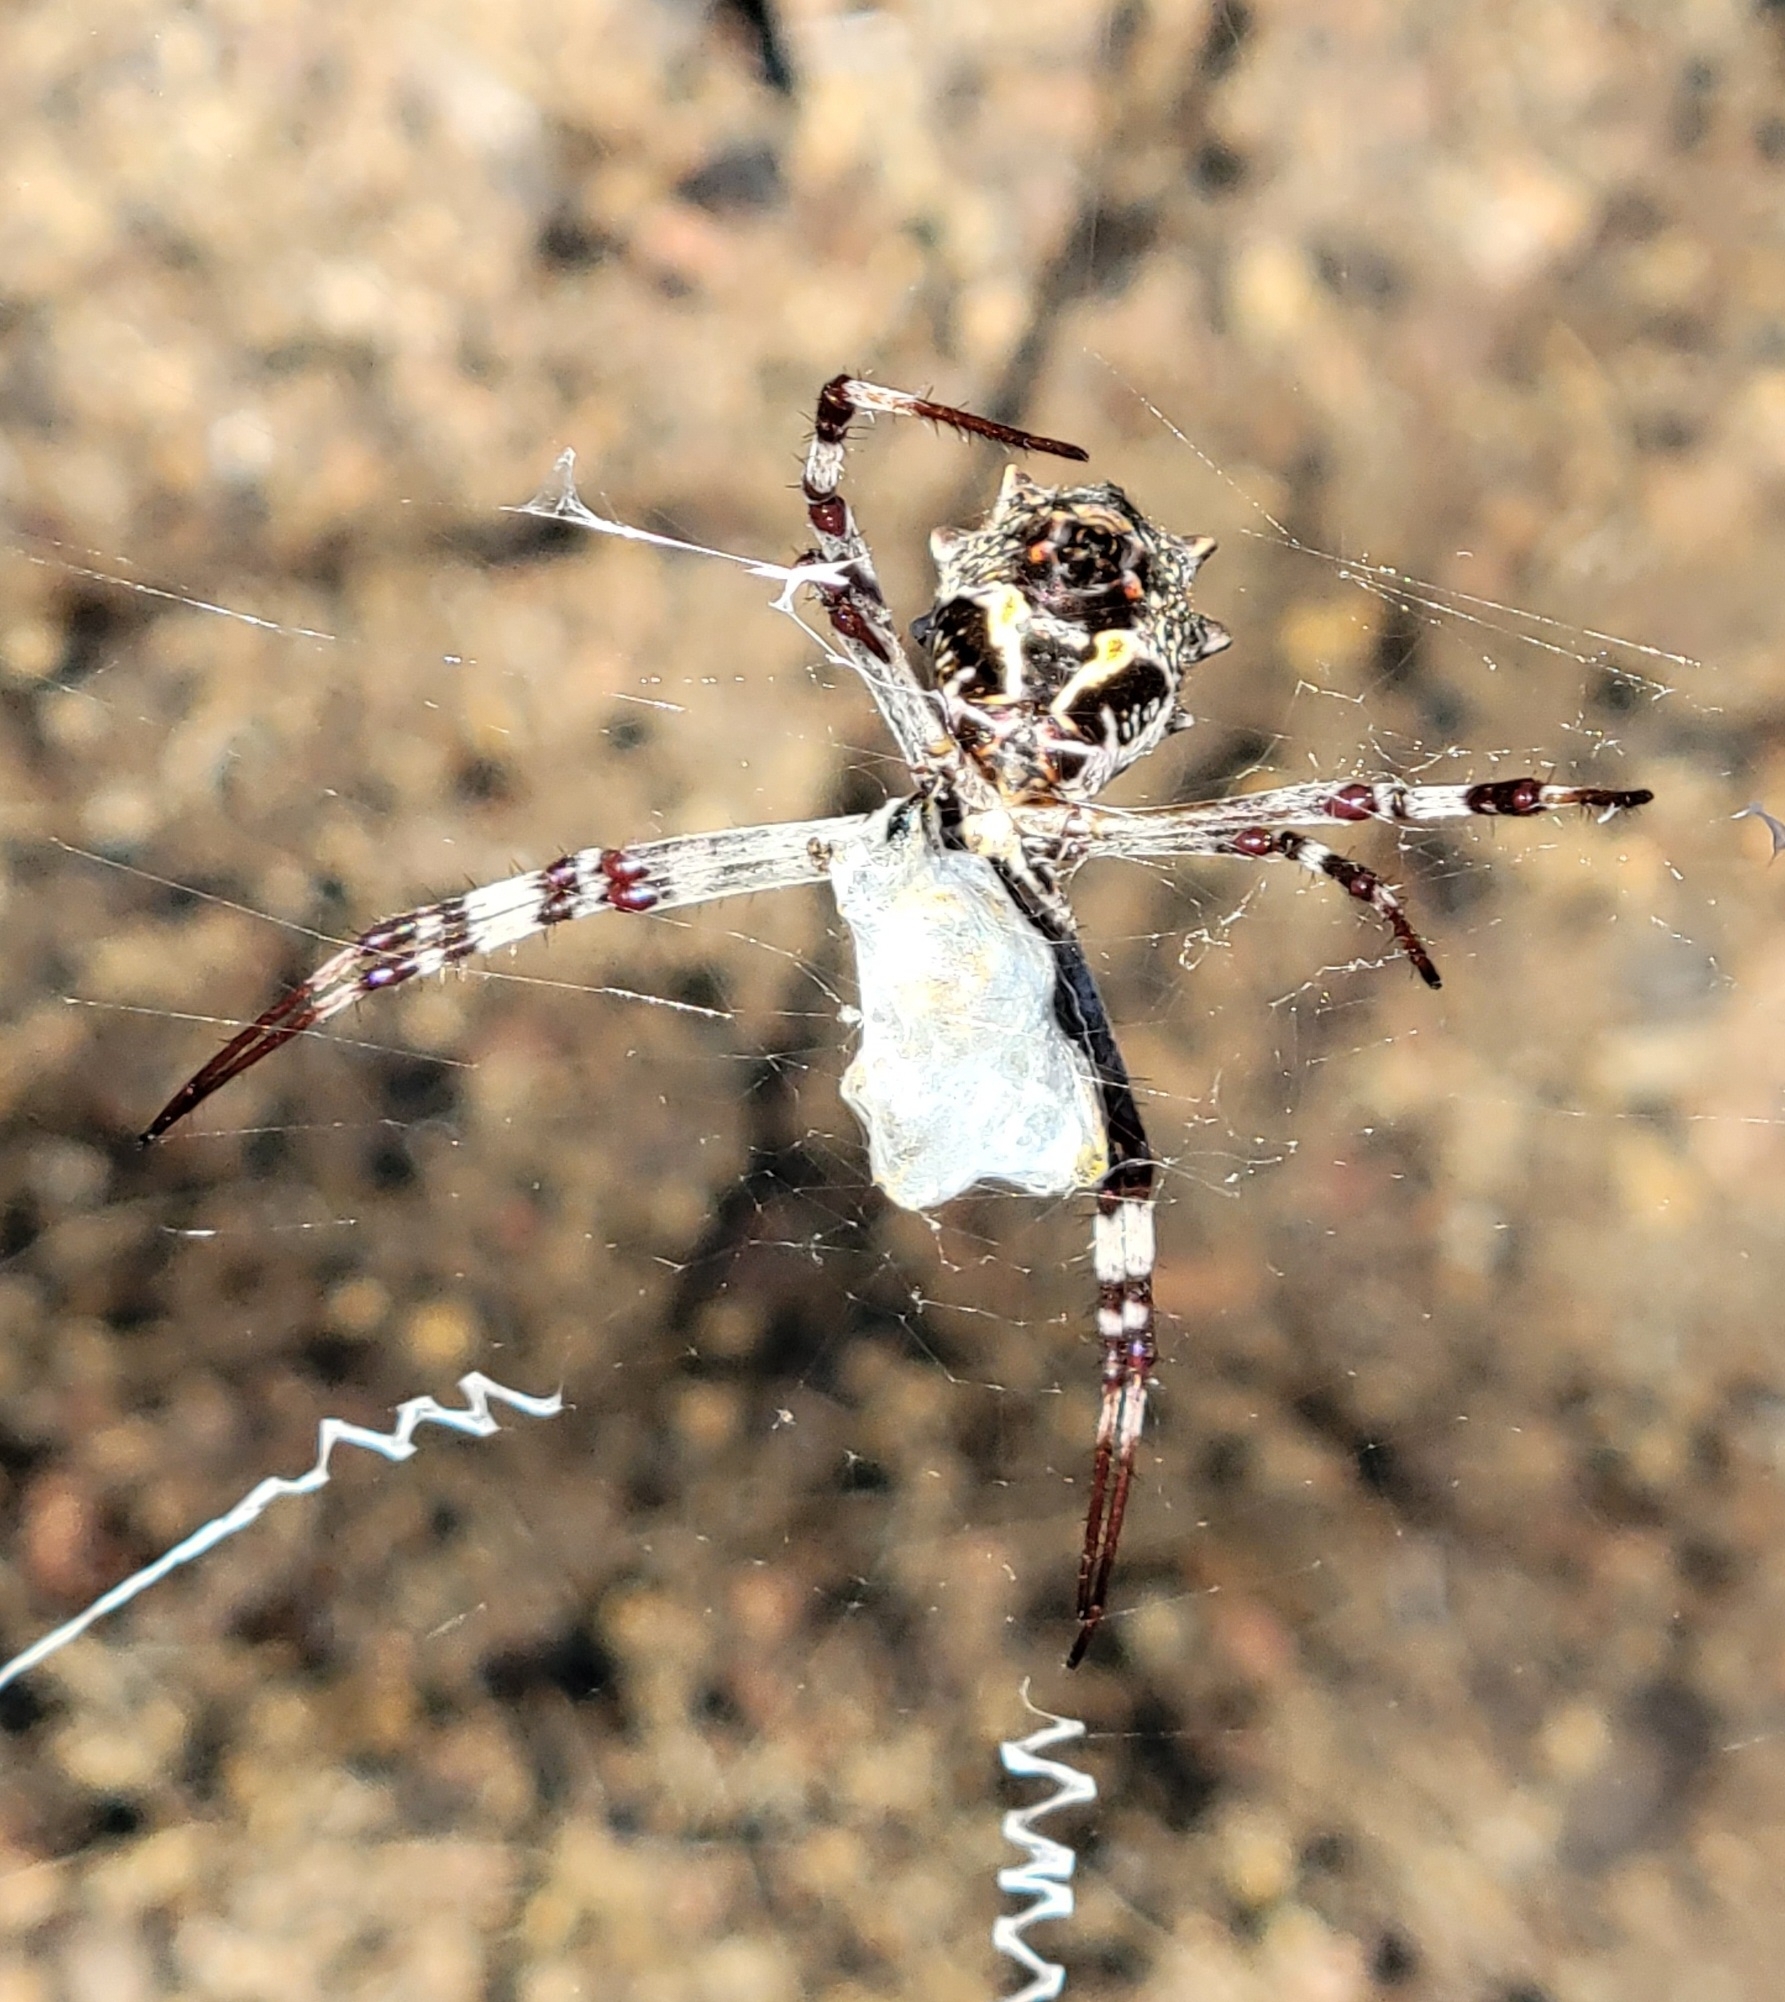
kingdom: Animalia
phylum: Arthropoda
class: Arachnida
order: Araneae
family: Araneidae
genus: Argiope
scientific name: Argiope argentata
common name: Orb weavers
